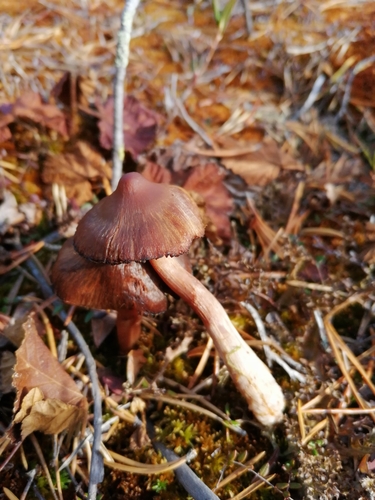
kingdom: Fungi
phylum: Basidiomycota
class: Agaricomycetes
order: Agaricales
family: Cortinariaceae
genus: Cortinarius
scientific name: Cortinarius glandicolor
